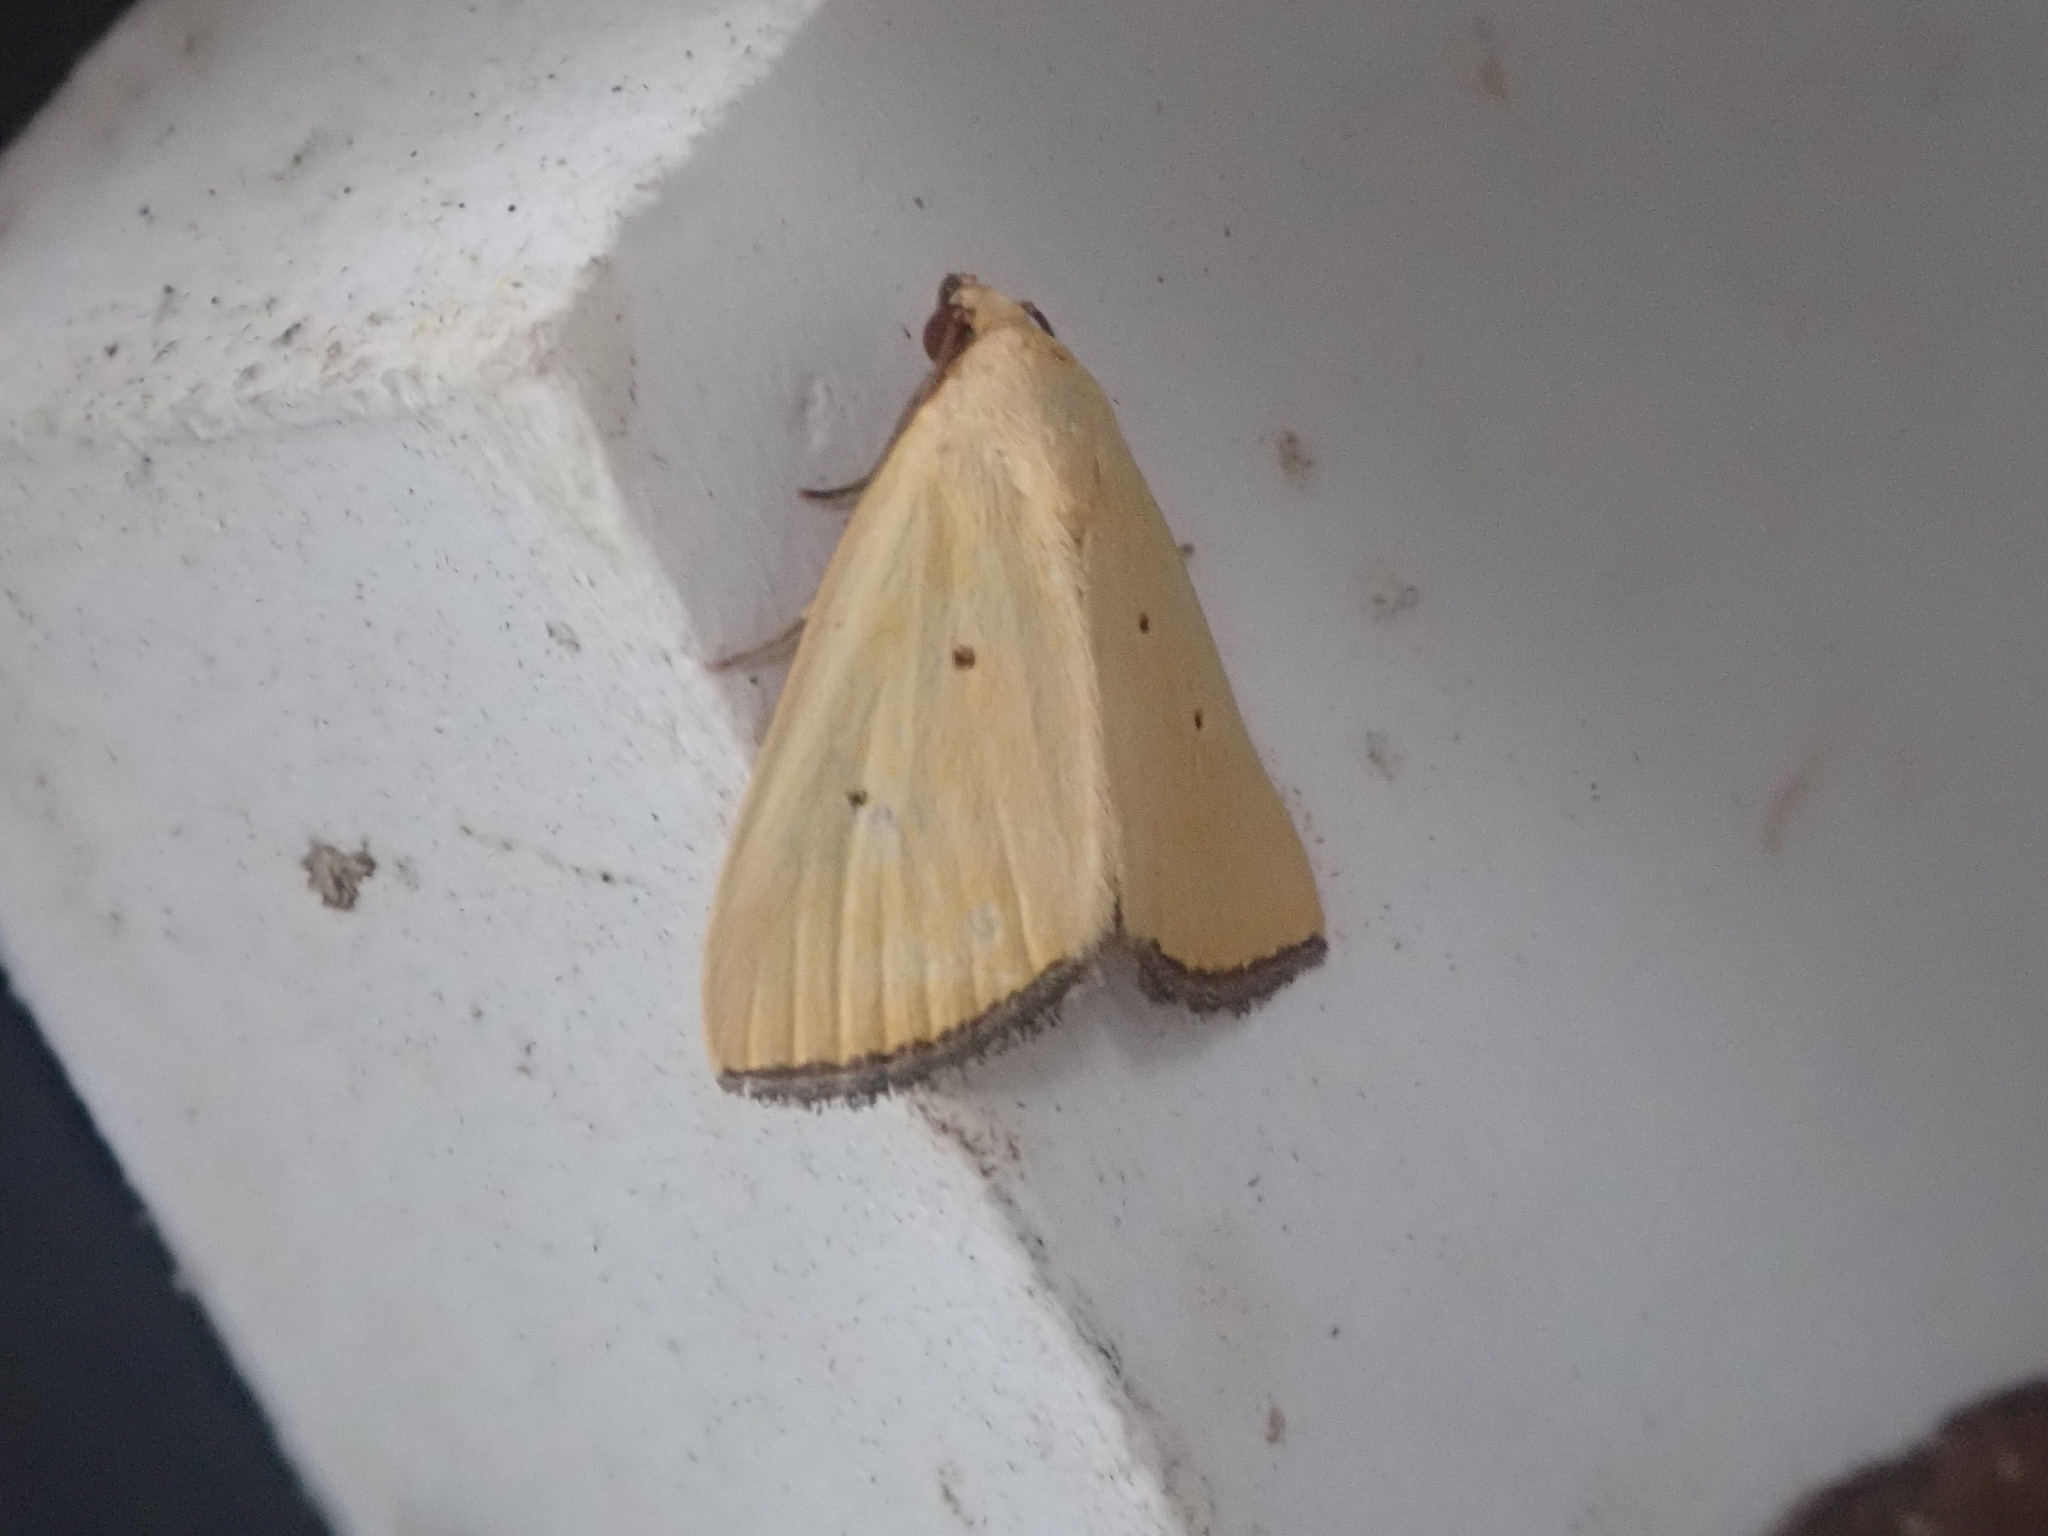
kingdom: Animalia
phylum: Arthropoda
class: Insecta
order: Lepidoptera
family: Noctuidae
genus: Marimatha
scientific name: Marimatha nigrofimbria
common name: Black-bordered lemon moth
